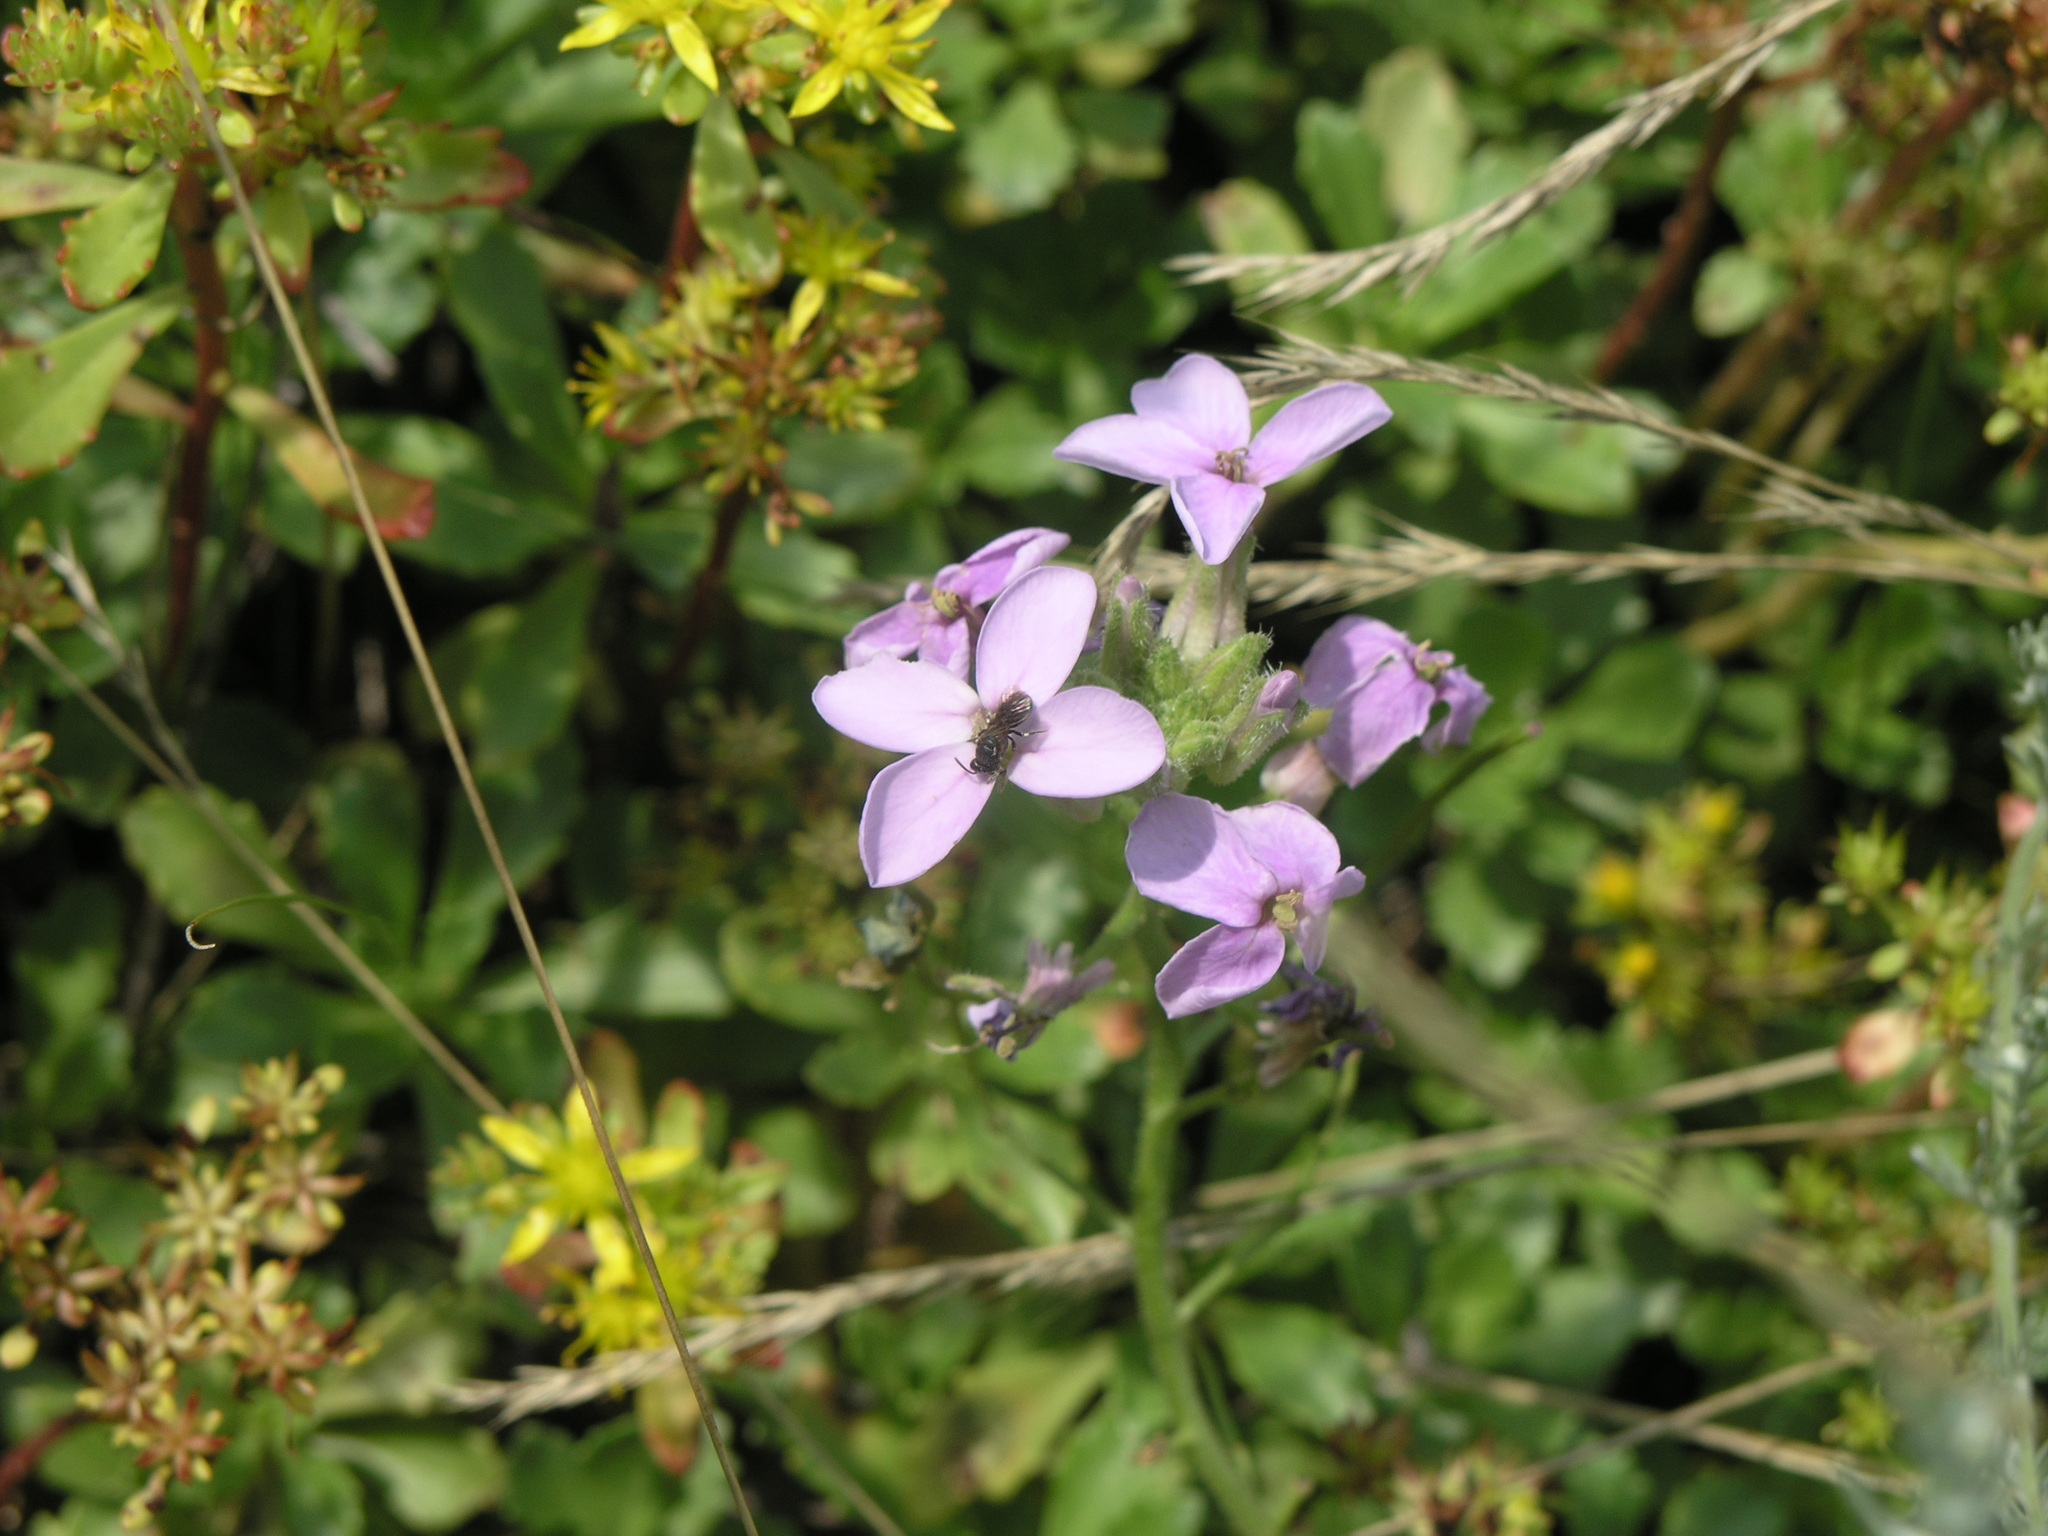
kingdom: Plantae
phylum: Tracheophyta
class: Magnoliopsida
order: Saxifragales
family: Crassulaceae
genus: Phedimus
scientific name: Phedimus hybridus
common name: Hybrid stonecrop
